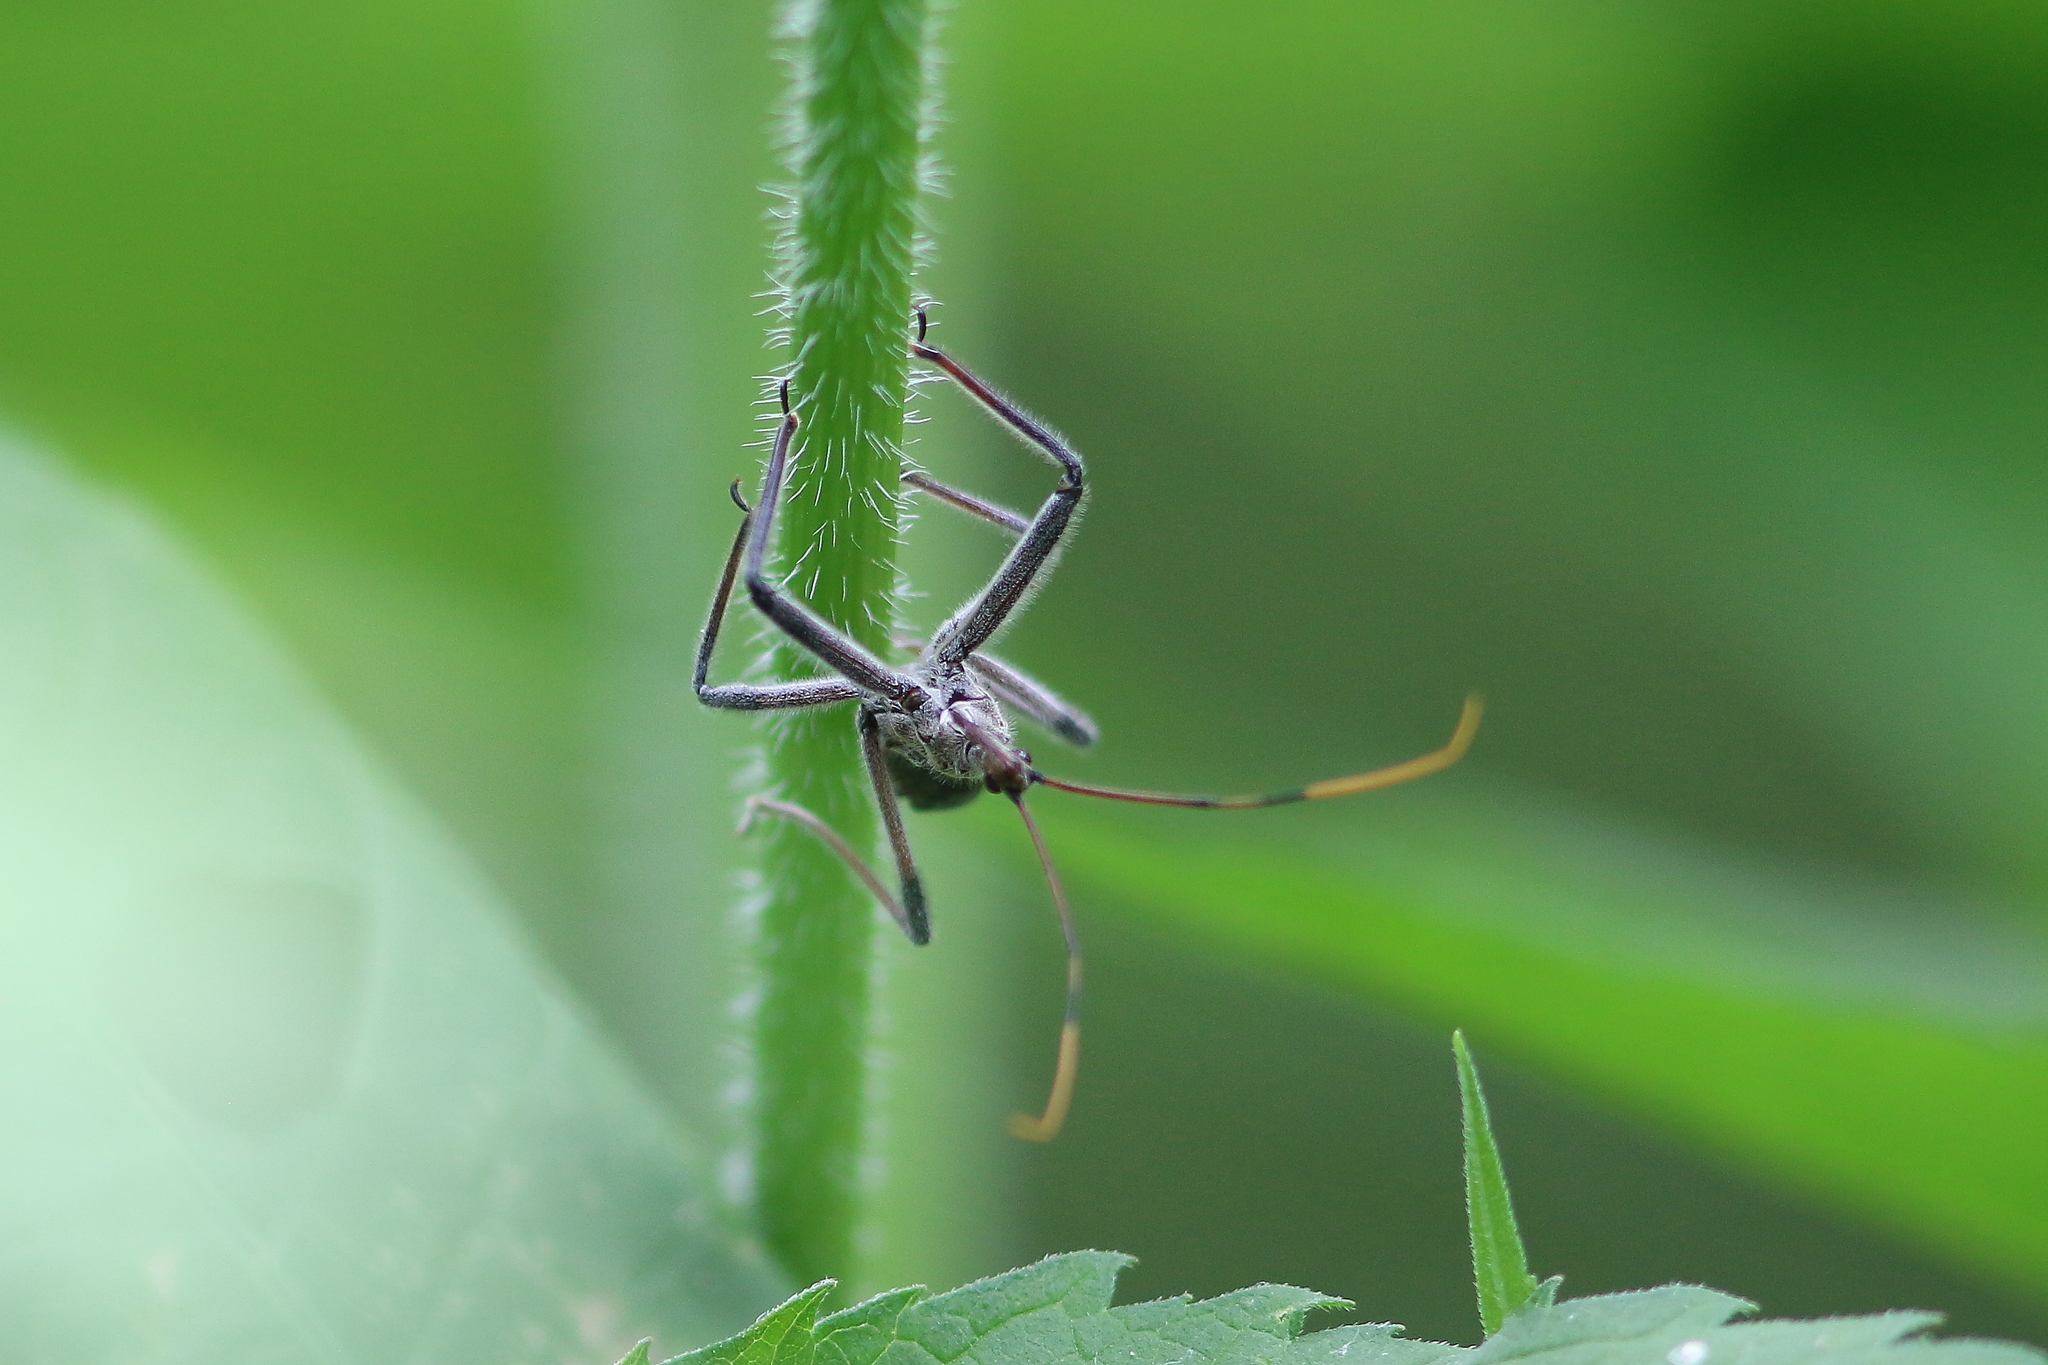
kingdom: Animalia
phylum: Arthropoda
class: Insecta
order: Hemiptera
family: Reduviidae
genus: Arilus
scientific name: Arilus cristatus
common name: North american wheel bug
